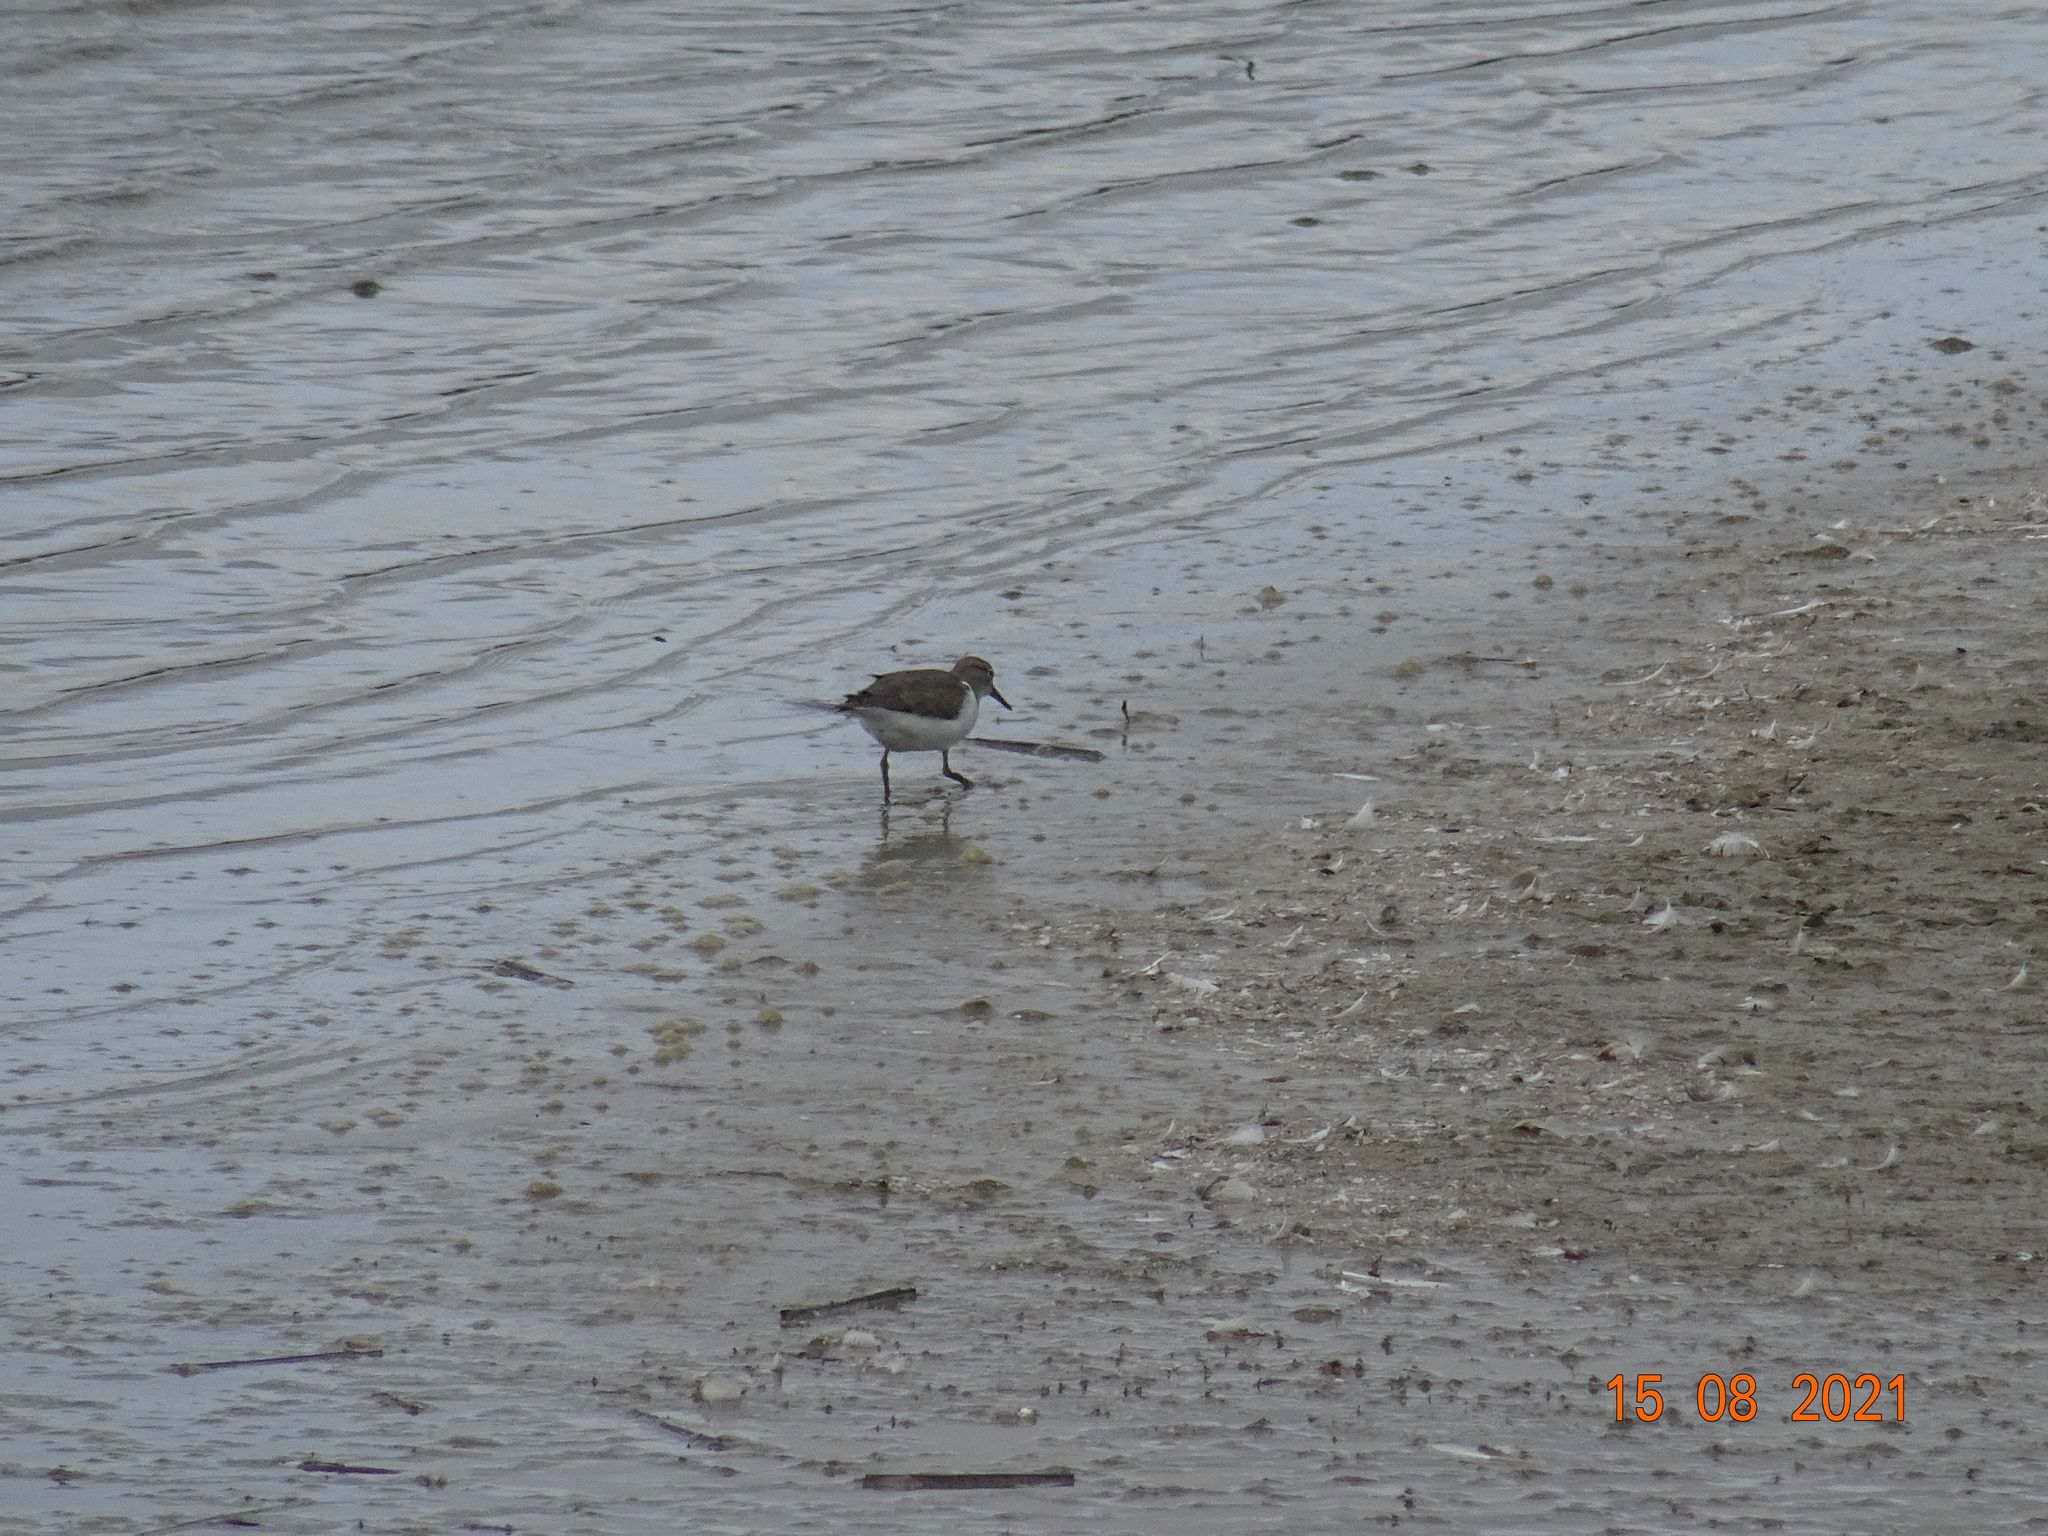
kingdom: Animalia
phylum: Chordata
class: Aves
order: Charadriiformes
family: Scolopacidae
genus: Actitis
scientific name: Actitis hypoleucos
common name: Common sandpiper
